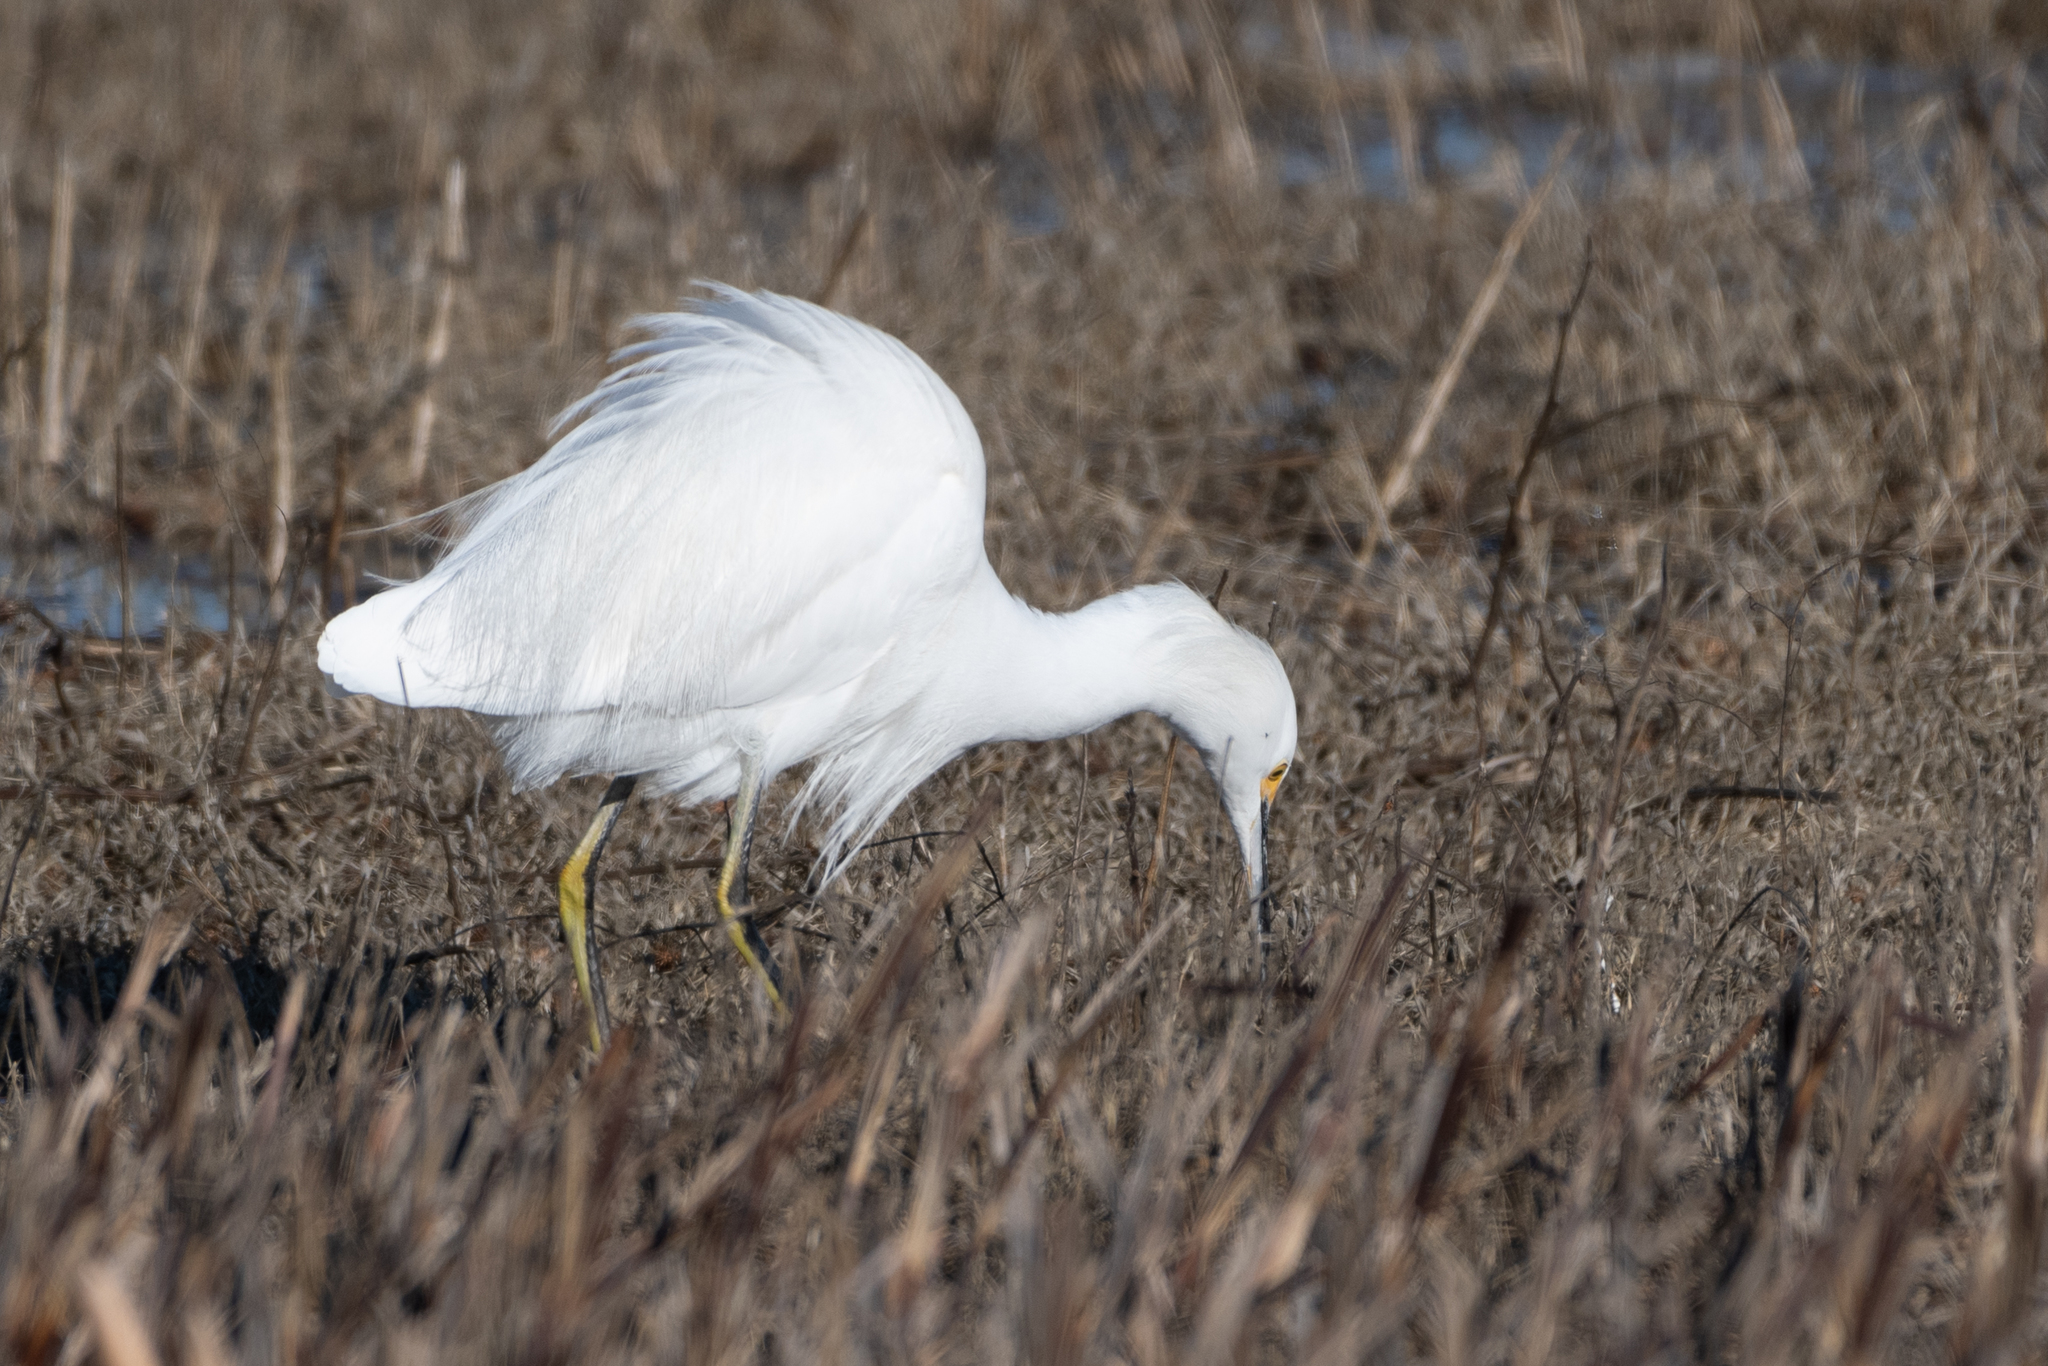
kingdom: Animalia
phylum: Chordata
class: Aves
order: Pelecaniformes
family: Ardeidae
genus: Egretta
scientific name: Egretta thula
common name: Snowy egret
